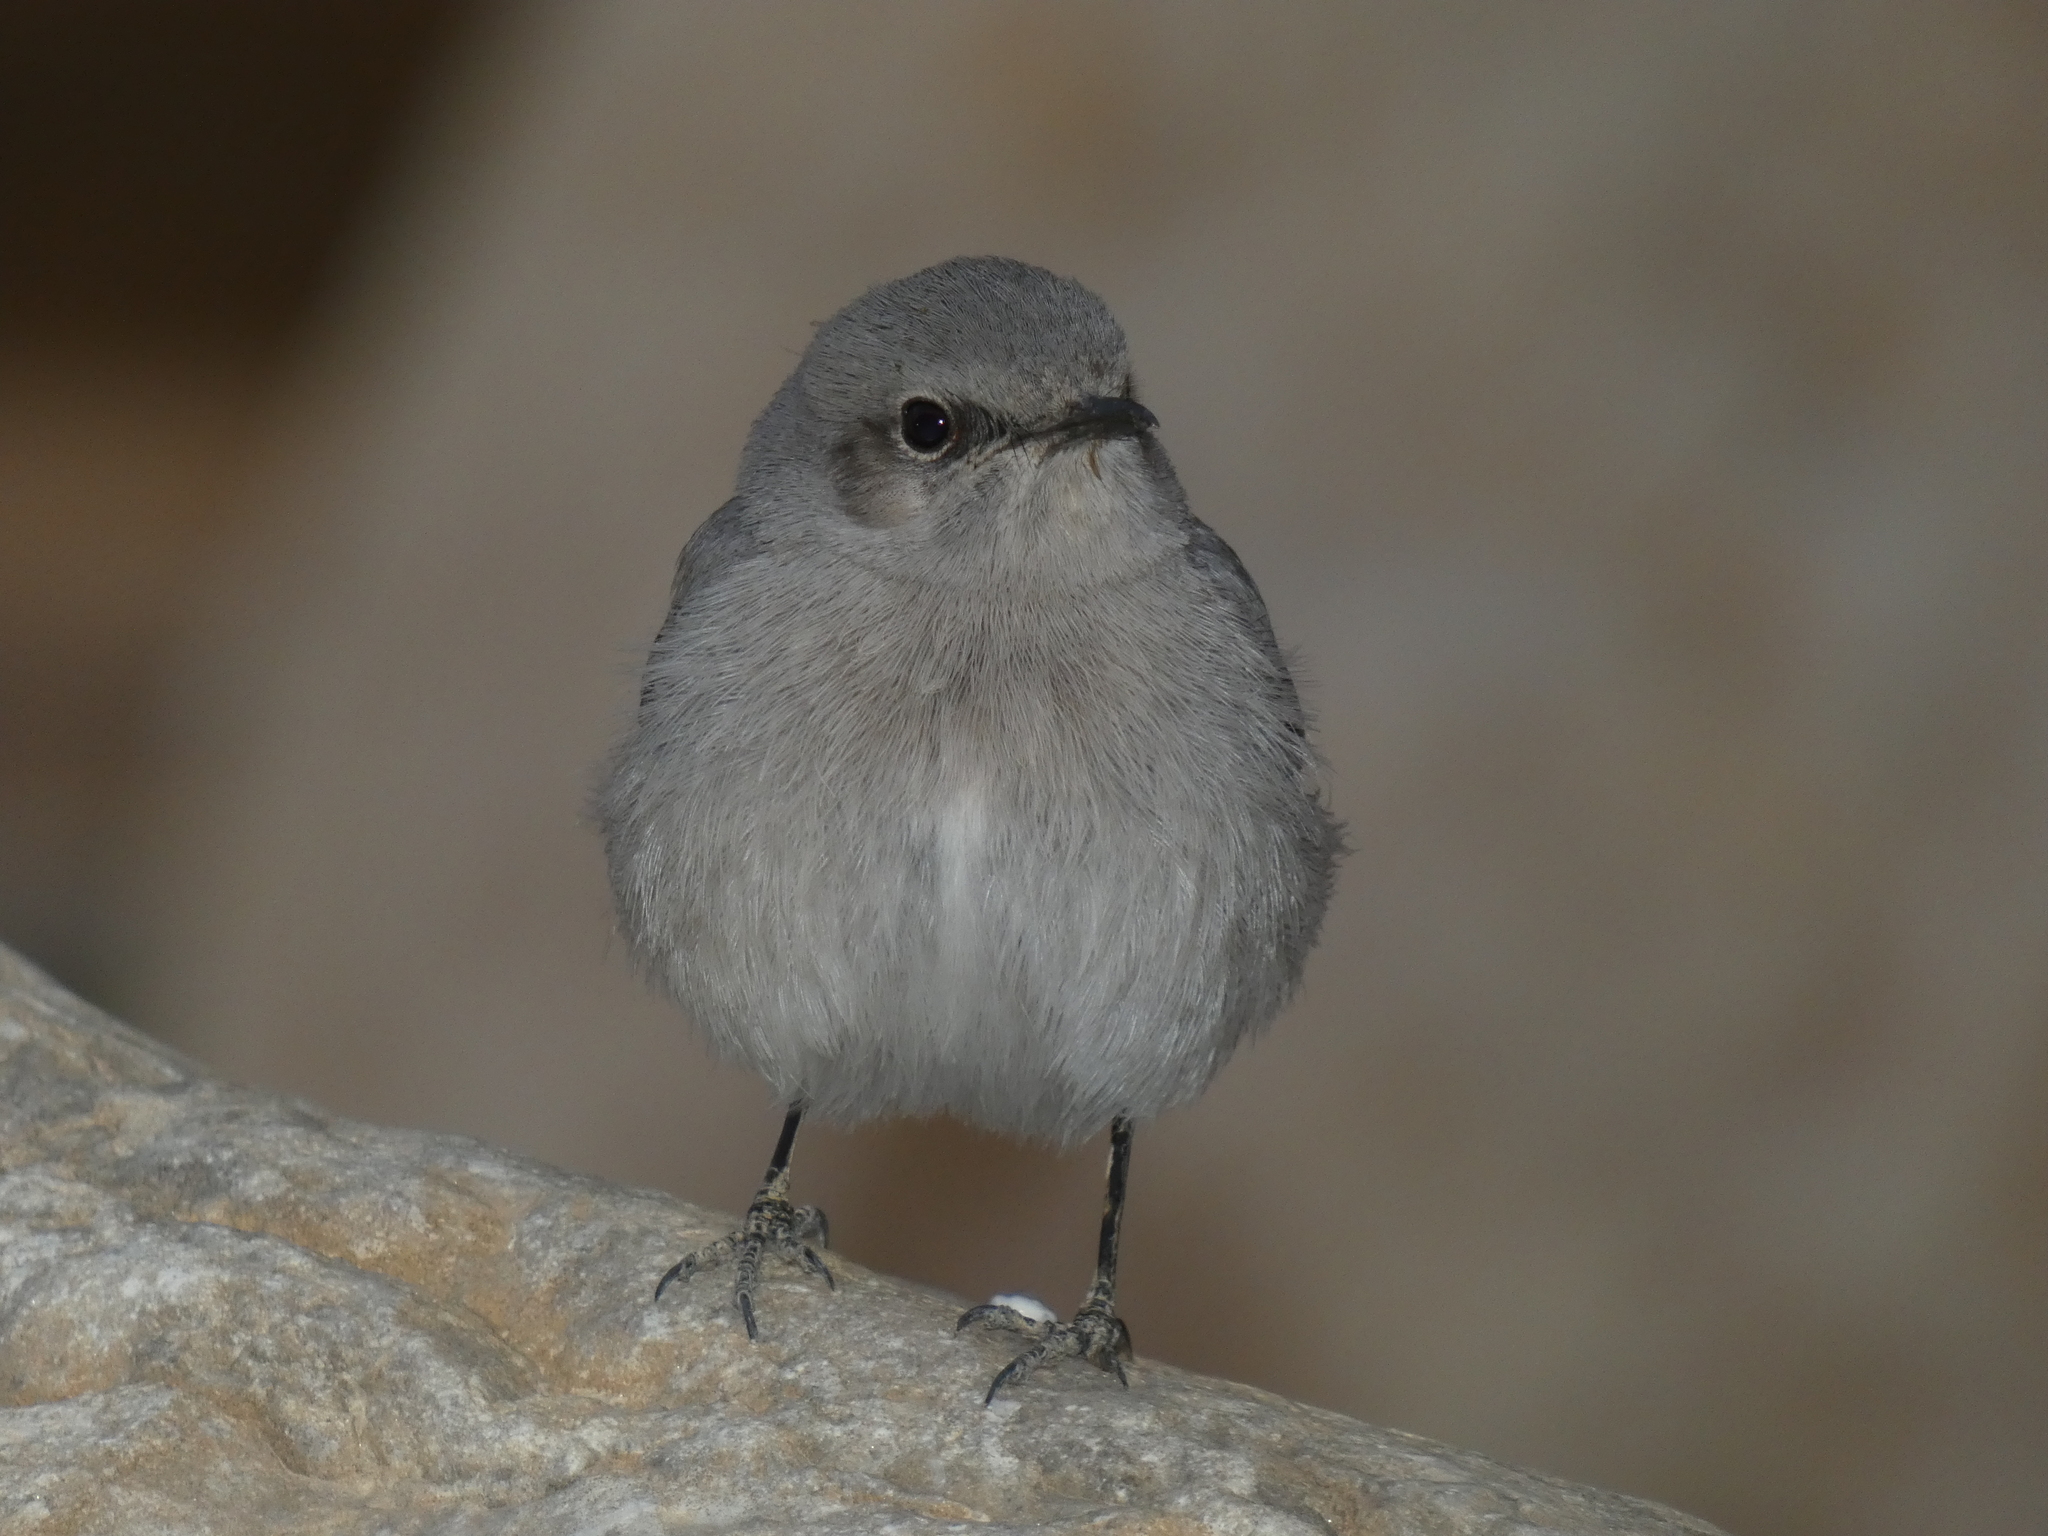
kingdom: Animalia
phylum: Chordata
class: Aves
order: Passeriformes
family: Muscicapidae
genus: Oenanthe
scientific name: Oenanthe melanura
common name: Blackstart
